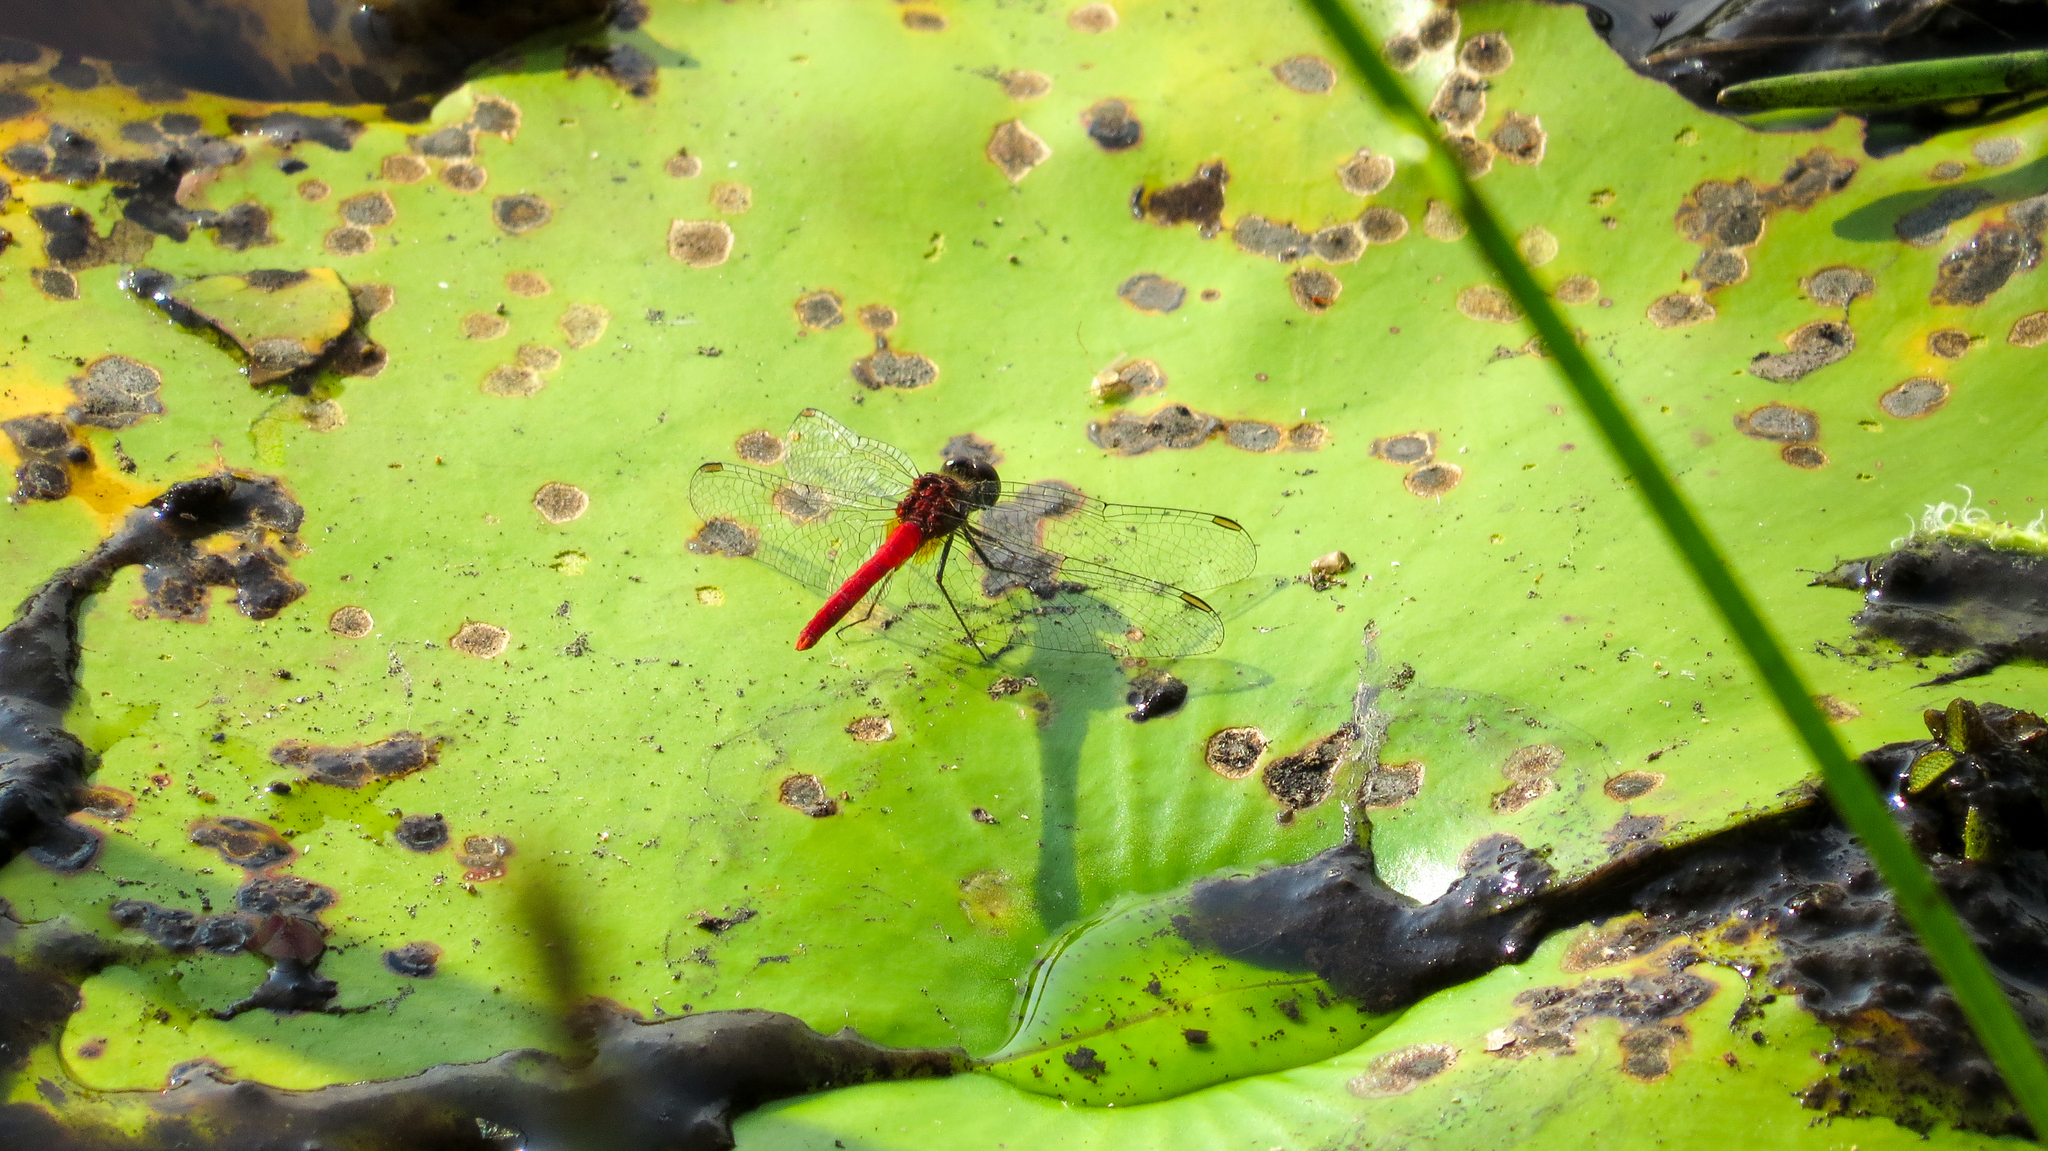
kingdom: Animalia
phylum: Arthropoda
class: Insecta
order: Odonata
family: Libellulidae
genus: Nannodiplax
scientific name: Nannodiplax rubra
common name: Pygmy percher
